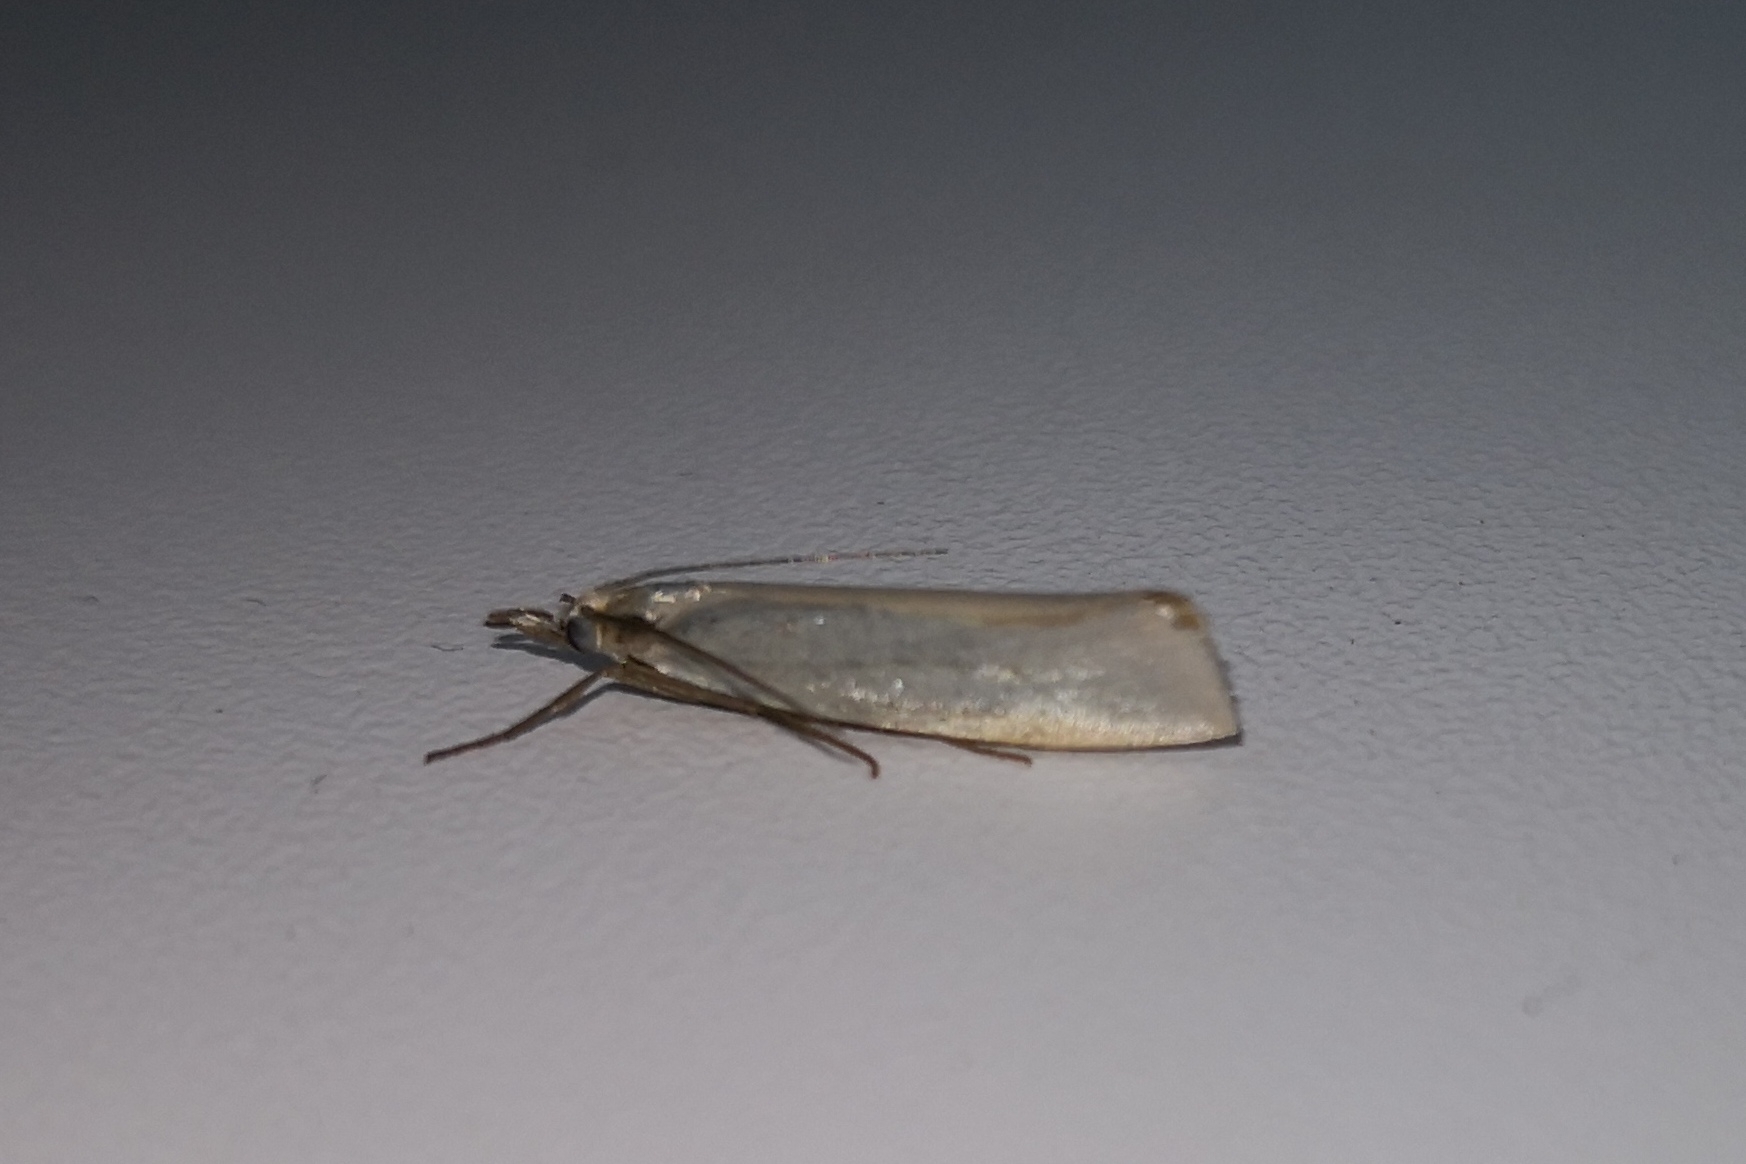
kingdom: Animalia
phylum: Arthropoda
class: Insecta
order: Lepidoptera
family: Crambidae
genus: Crambus
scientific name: Crambus perlellus
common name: Yellow satin veneer
